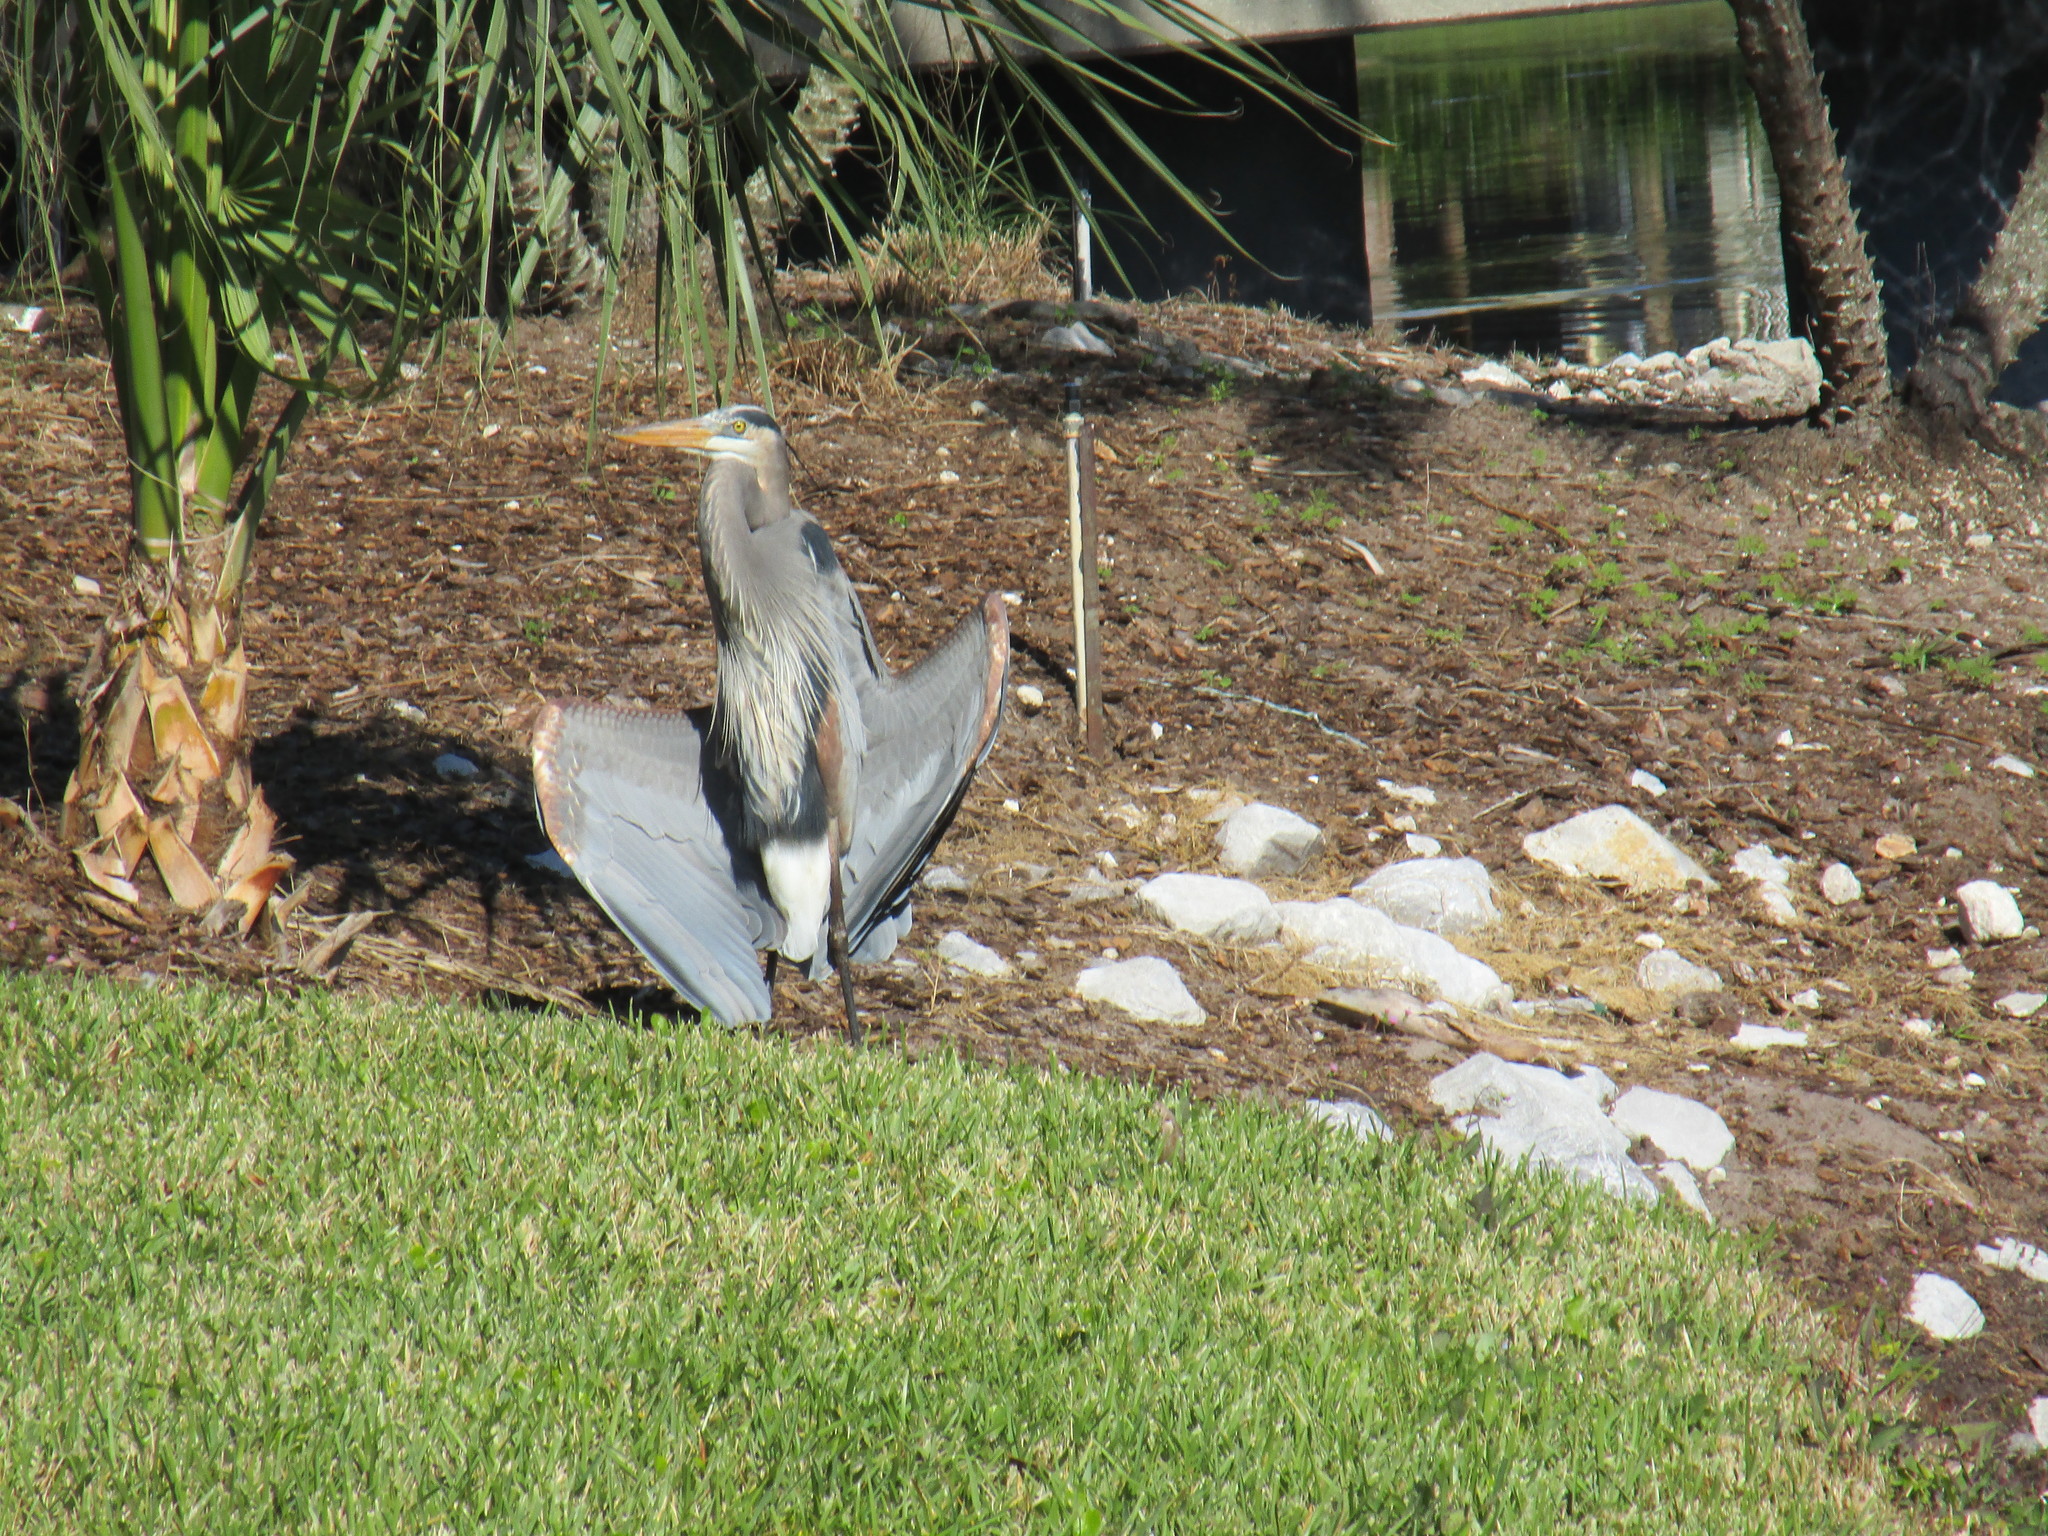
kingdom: Animalia
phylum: Chordata
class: Aves
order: Pelecaniformes
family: Ardeidae
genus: Ardea
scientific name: Ardea herodias
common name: Great blue heron
